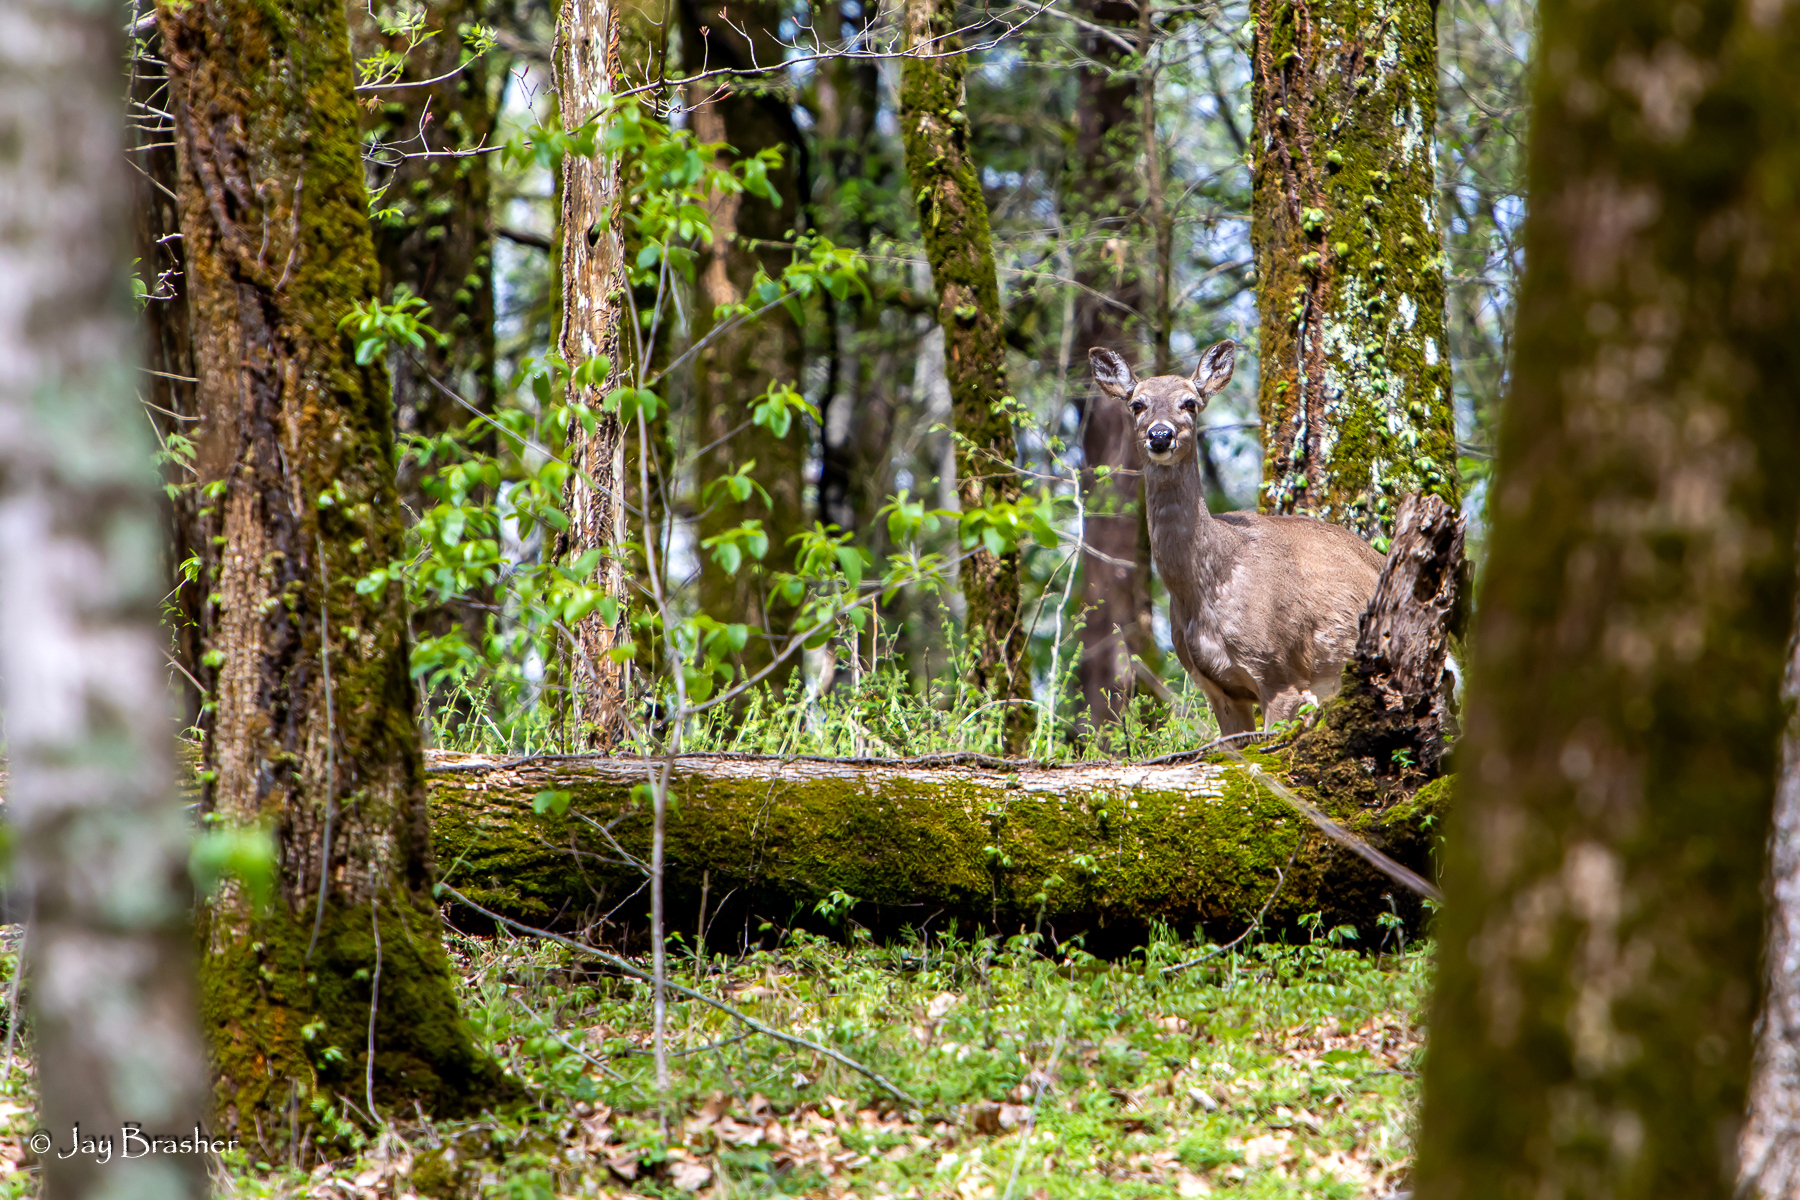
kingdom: Animalia
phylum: Chordata
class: Mammalia
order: Artiodactyla
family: Cervidae
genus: Odocoileus
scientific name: Odocoileus virginianus
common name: White-tailed deer
